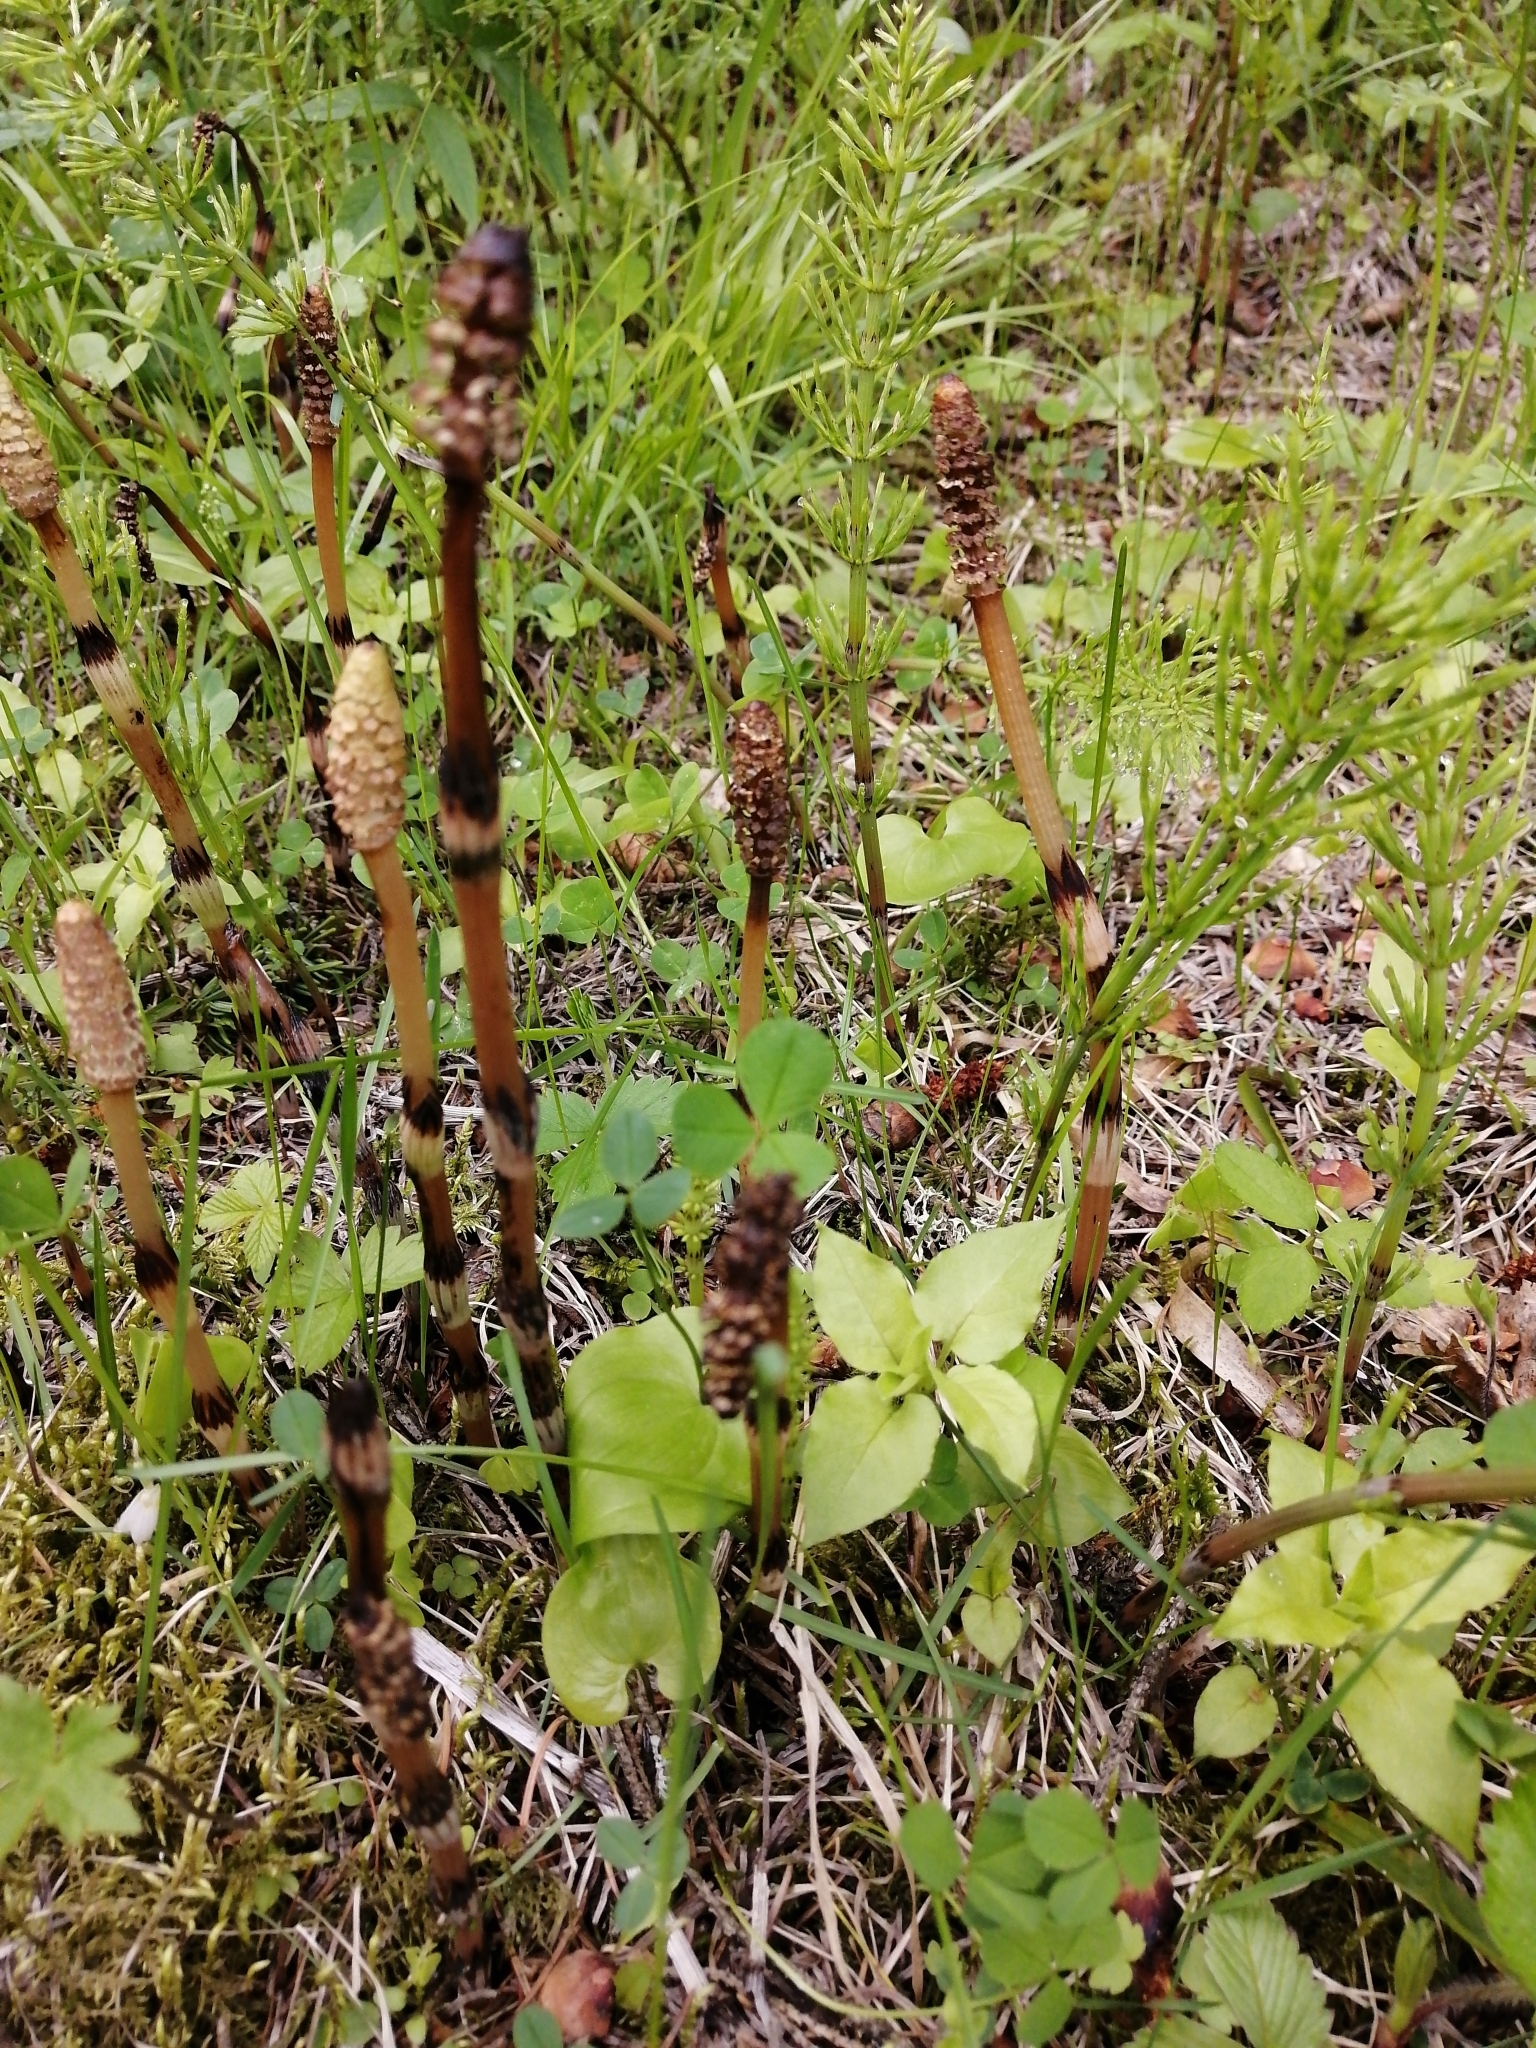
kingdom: Plantae
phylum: Tracheophyta
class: Polypodiopsida
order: Equisetales
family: Equisetaceae
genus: Equisetum
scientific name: Equisetum arvense
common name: Field horsetail
